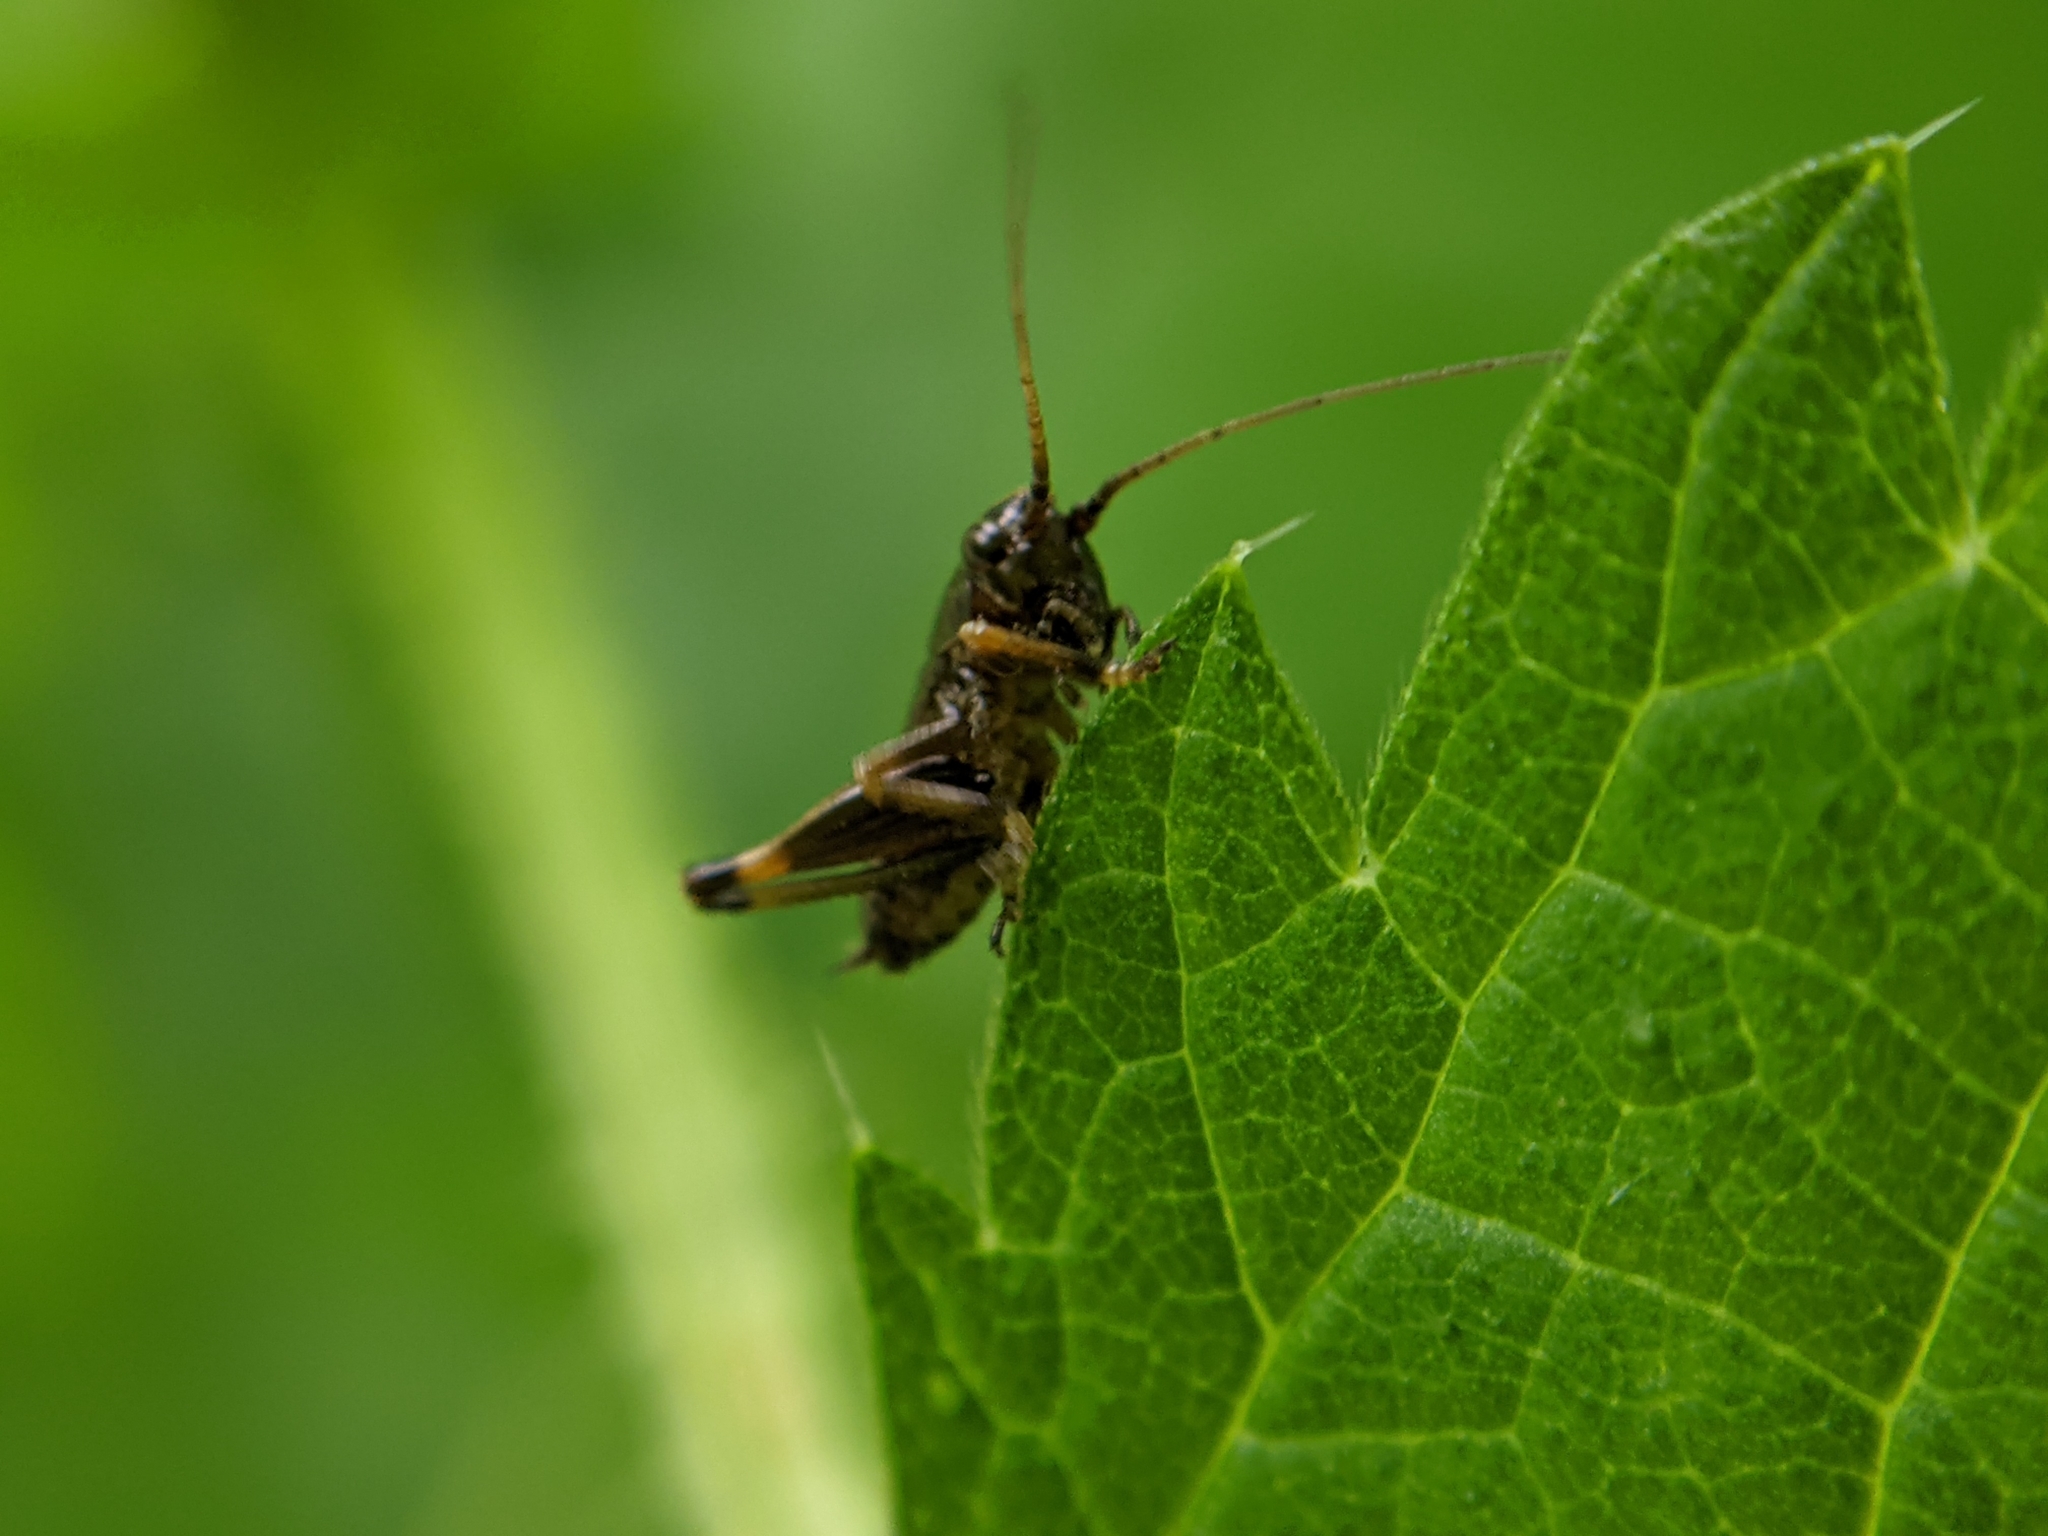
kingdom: Animalia
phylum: Arthropoda
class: Insecta
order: Orthoptera
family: Tettigoniidae
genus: Pholidoptera
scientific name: Pholidoptera griseoaptera
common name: Dark bush-cricket
